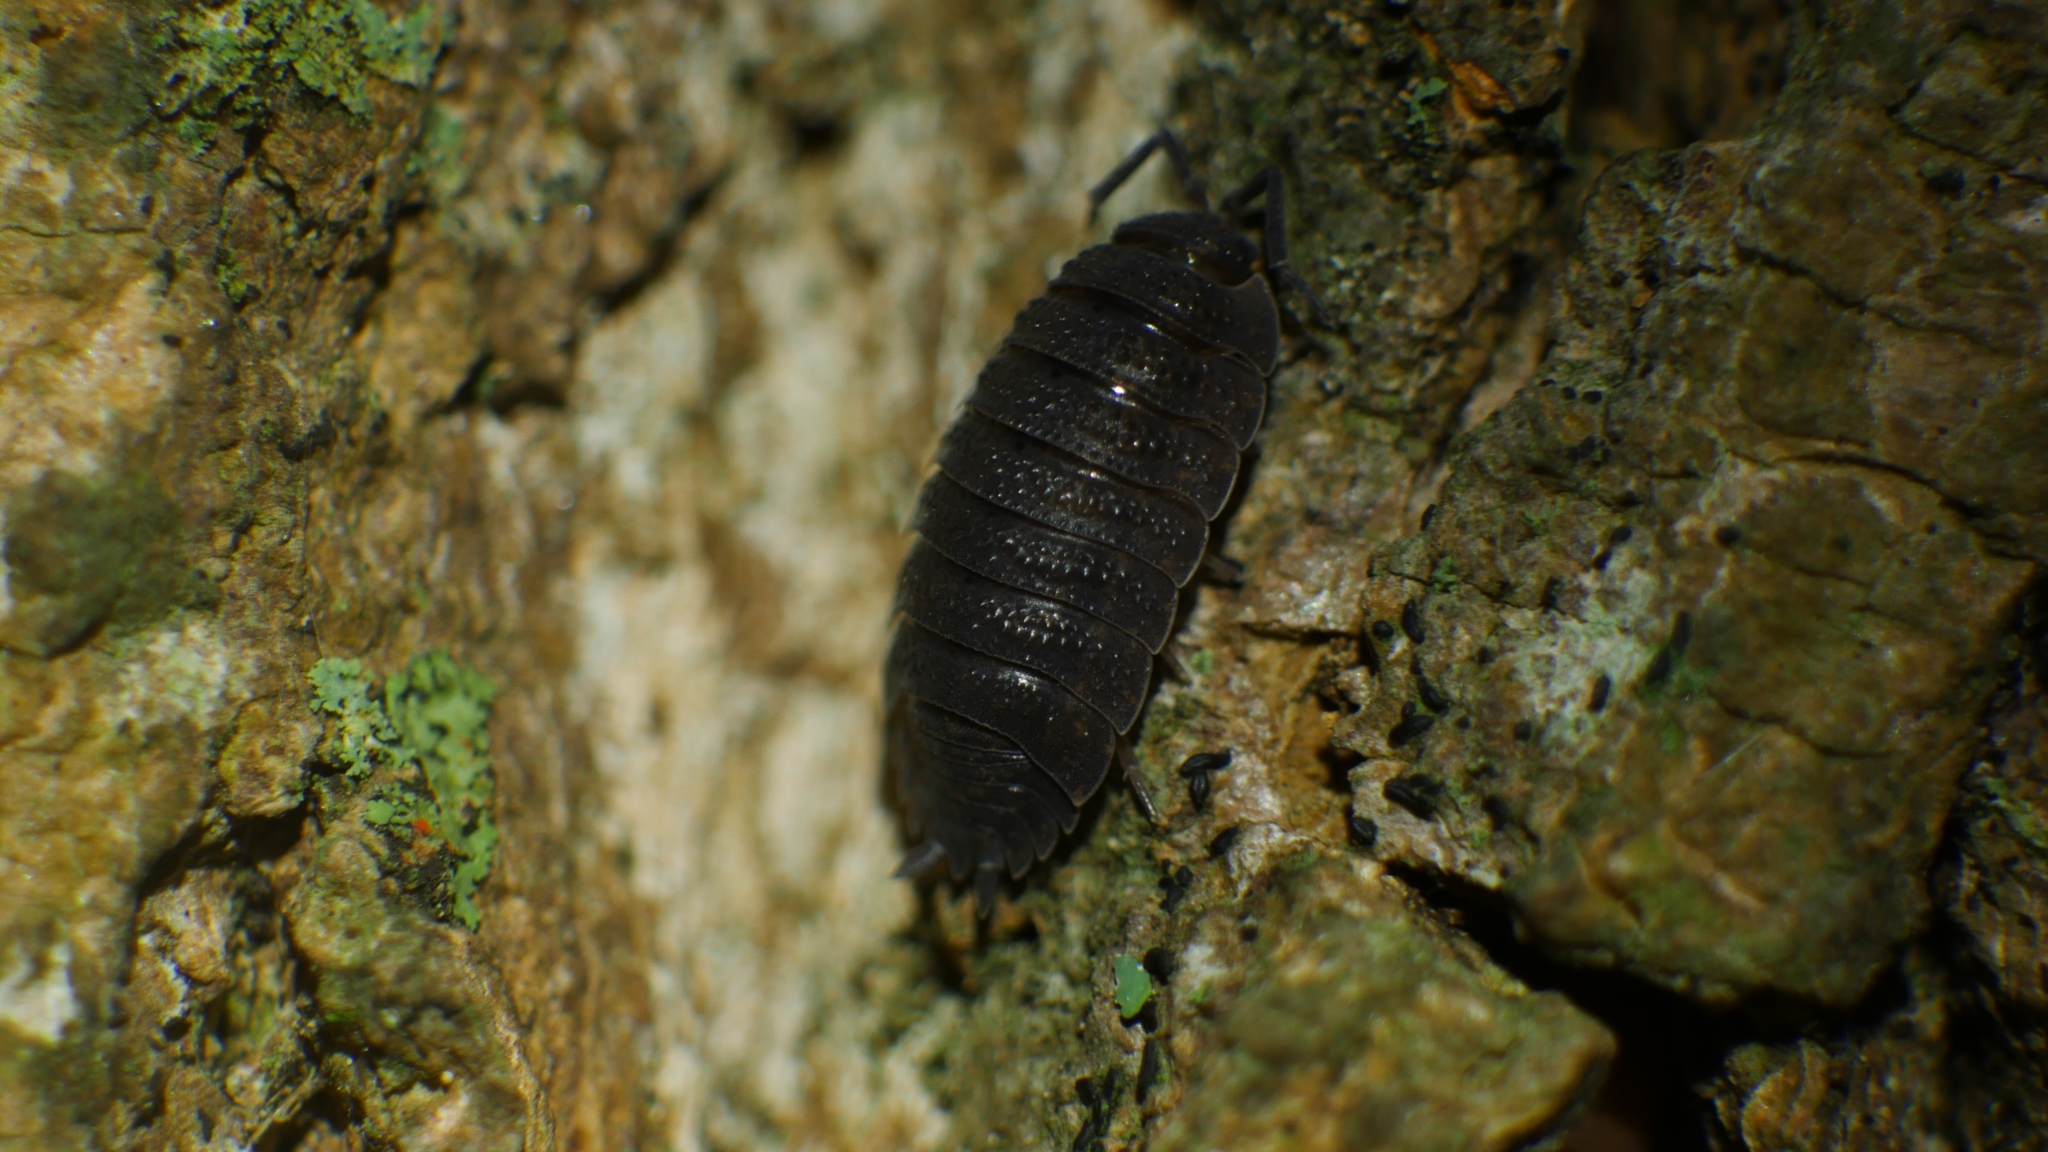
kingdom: Animalia
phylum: Arthropoda
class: Malacostraca
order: Isopoda
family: Porcellionidae
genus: Porcellio
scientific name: Porcellio scaber
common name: Common rough woodlouse
